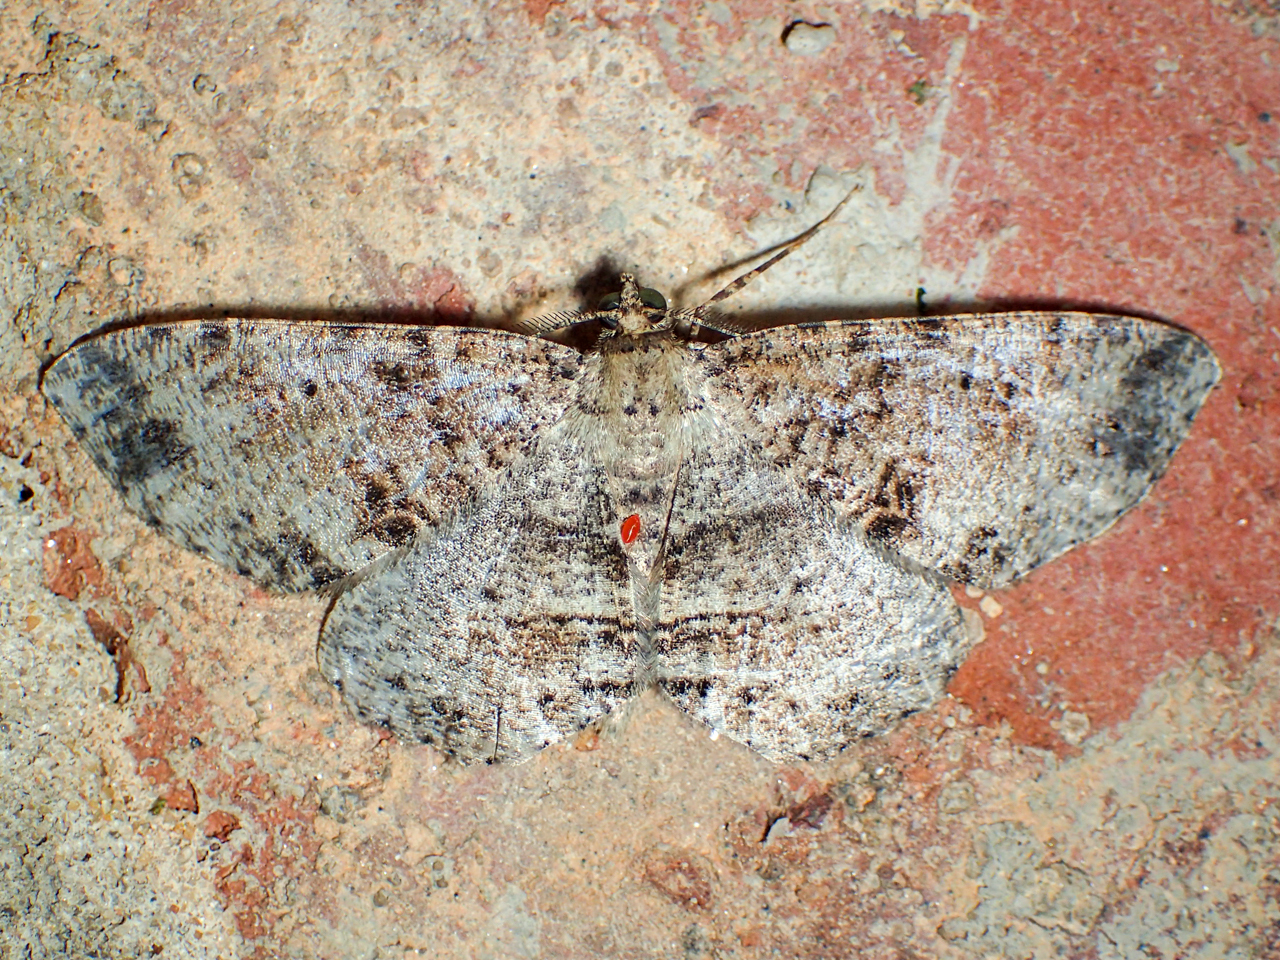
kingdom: Animalia
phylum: Arthropoda
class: Insecta
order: Lepidoptera
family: Geometridae
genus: Melanolophia
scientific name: Melanolophia canadaria
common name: Canadian melanolophia
